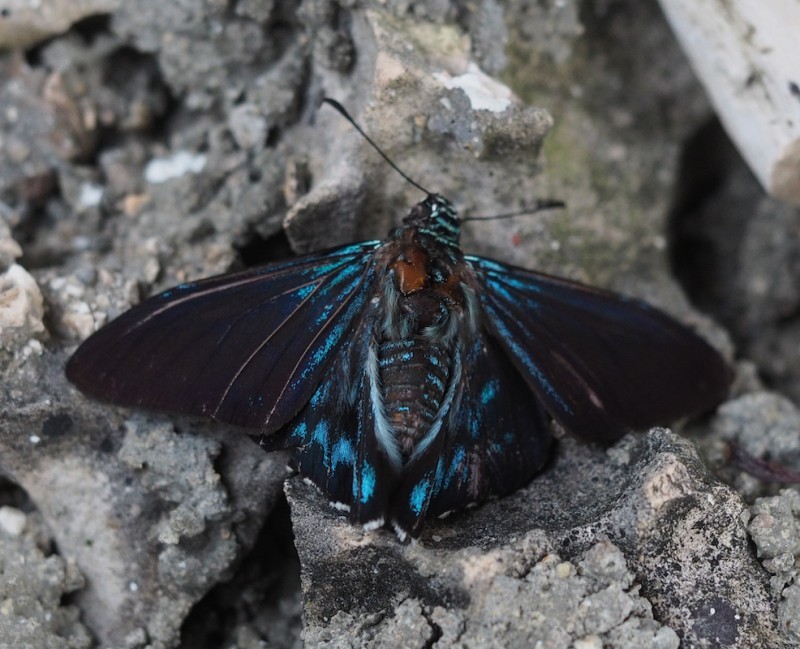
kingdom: Animalia
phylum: Arthropoda
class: Insecta
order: Lepidoptera
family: Hesperiidae
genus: Phocides
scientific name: Phocides pigmalion
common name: Mangrove skipper
